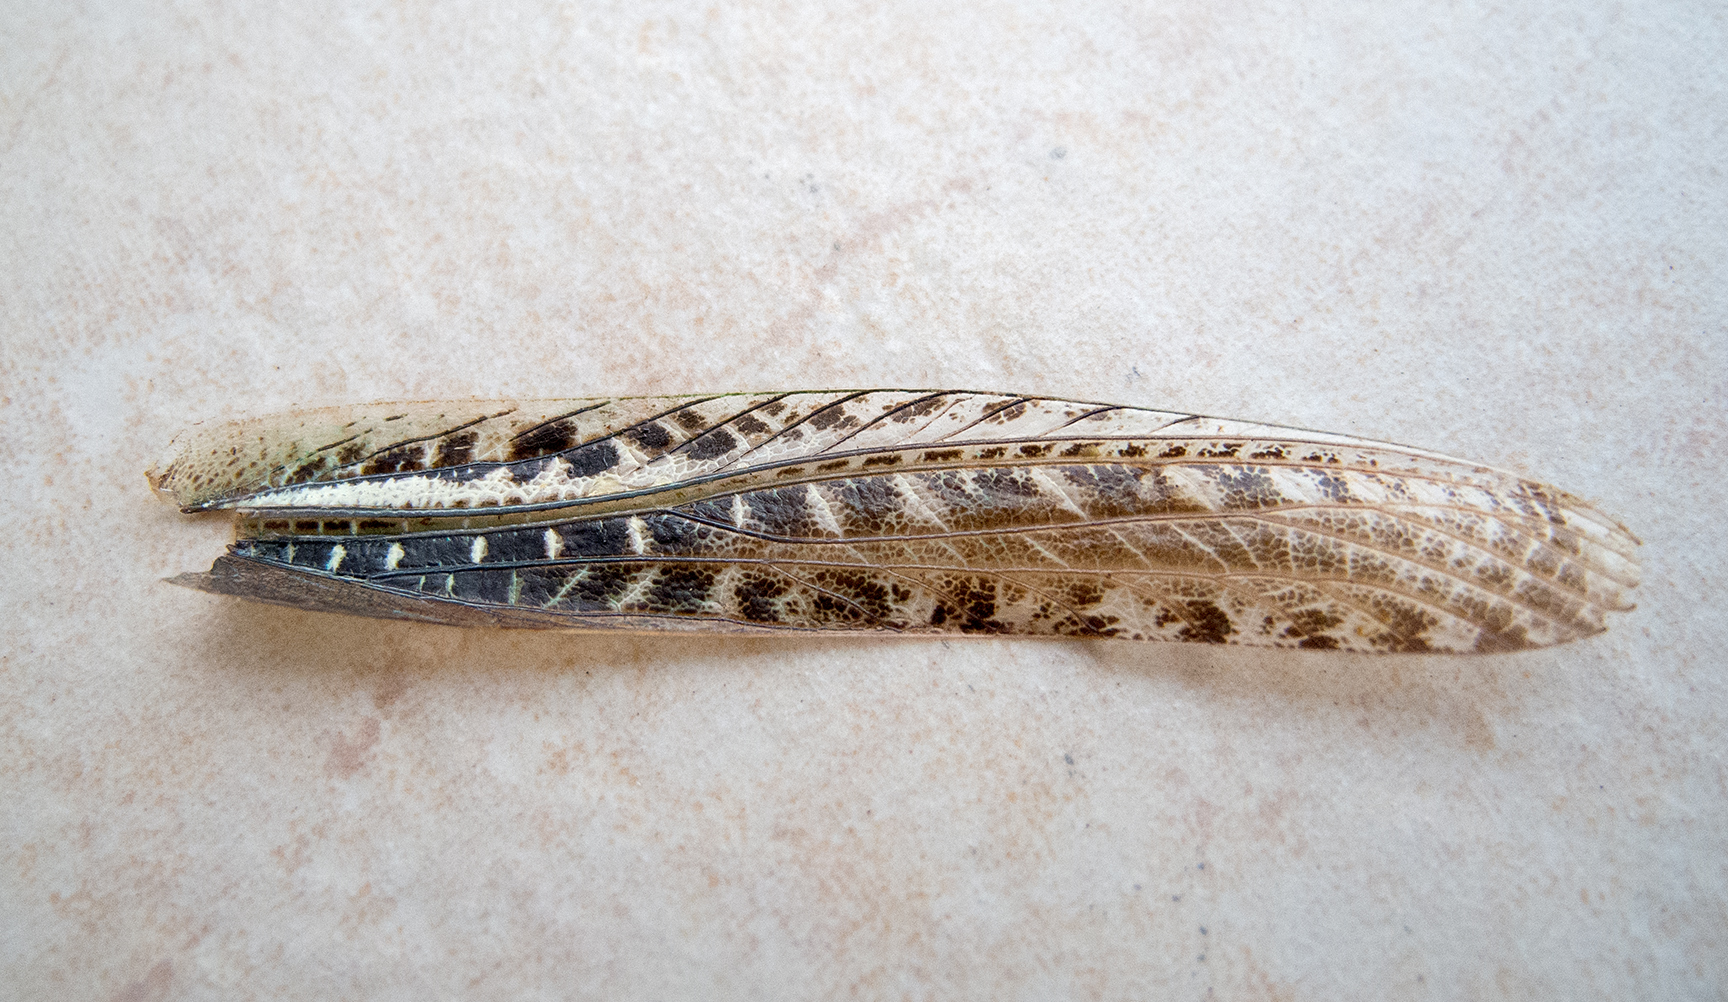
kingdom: Animalia
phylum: Arthropoda
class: Insecta
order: Orthoptera
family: Tettigoniidae
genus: Decticus
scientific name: Decticus albifrons
